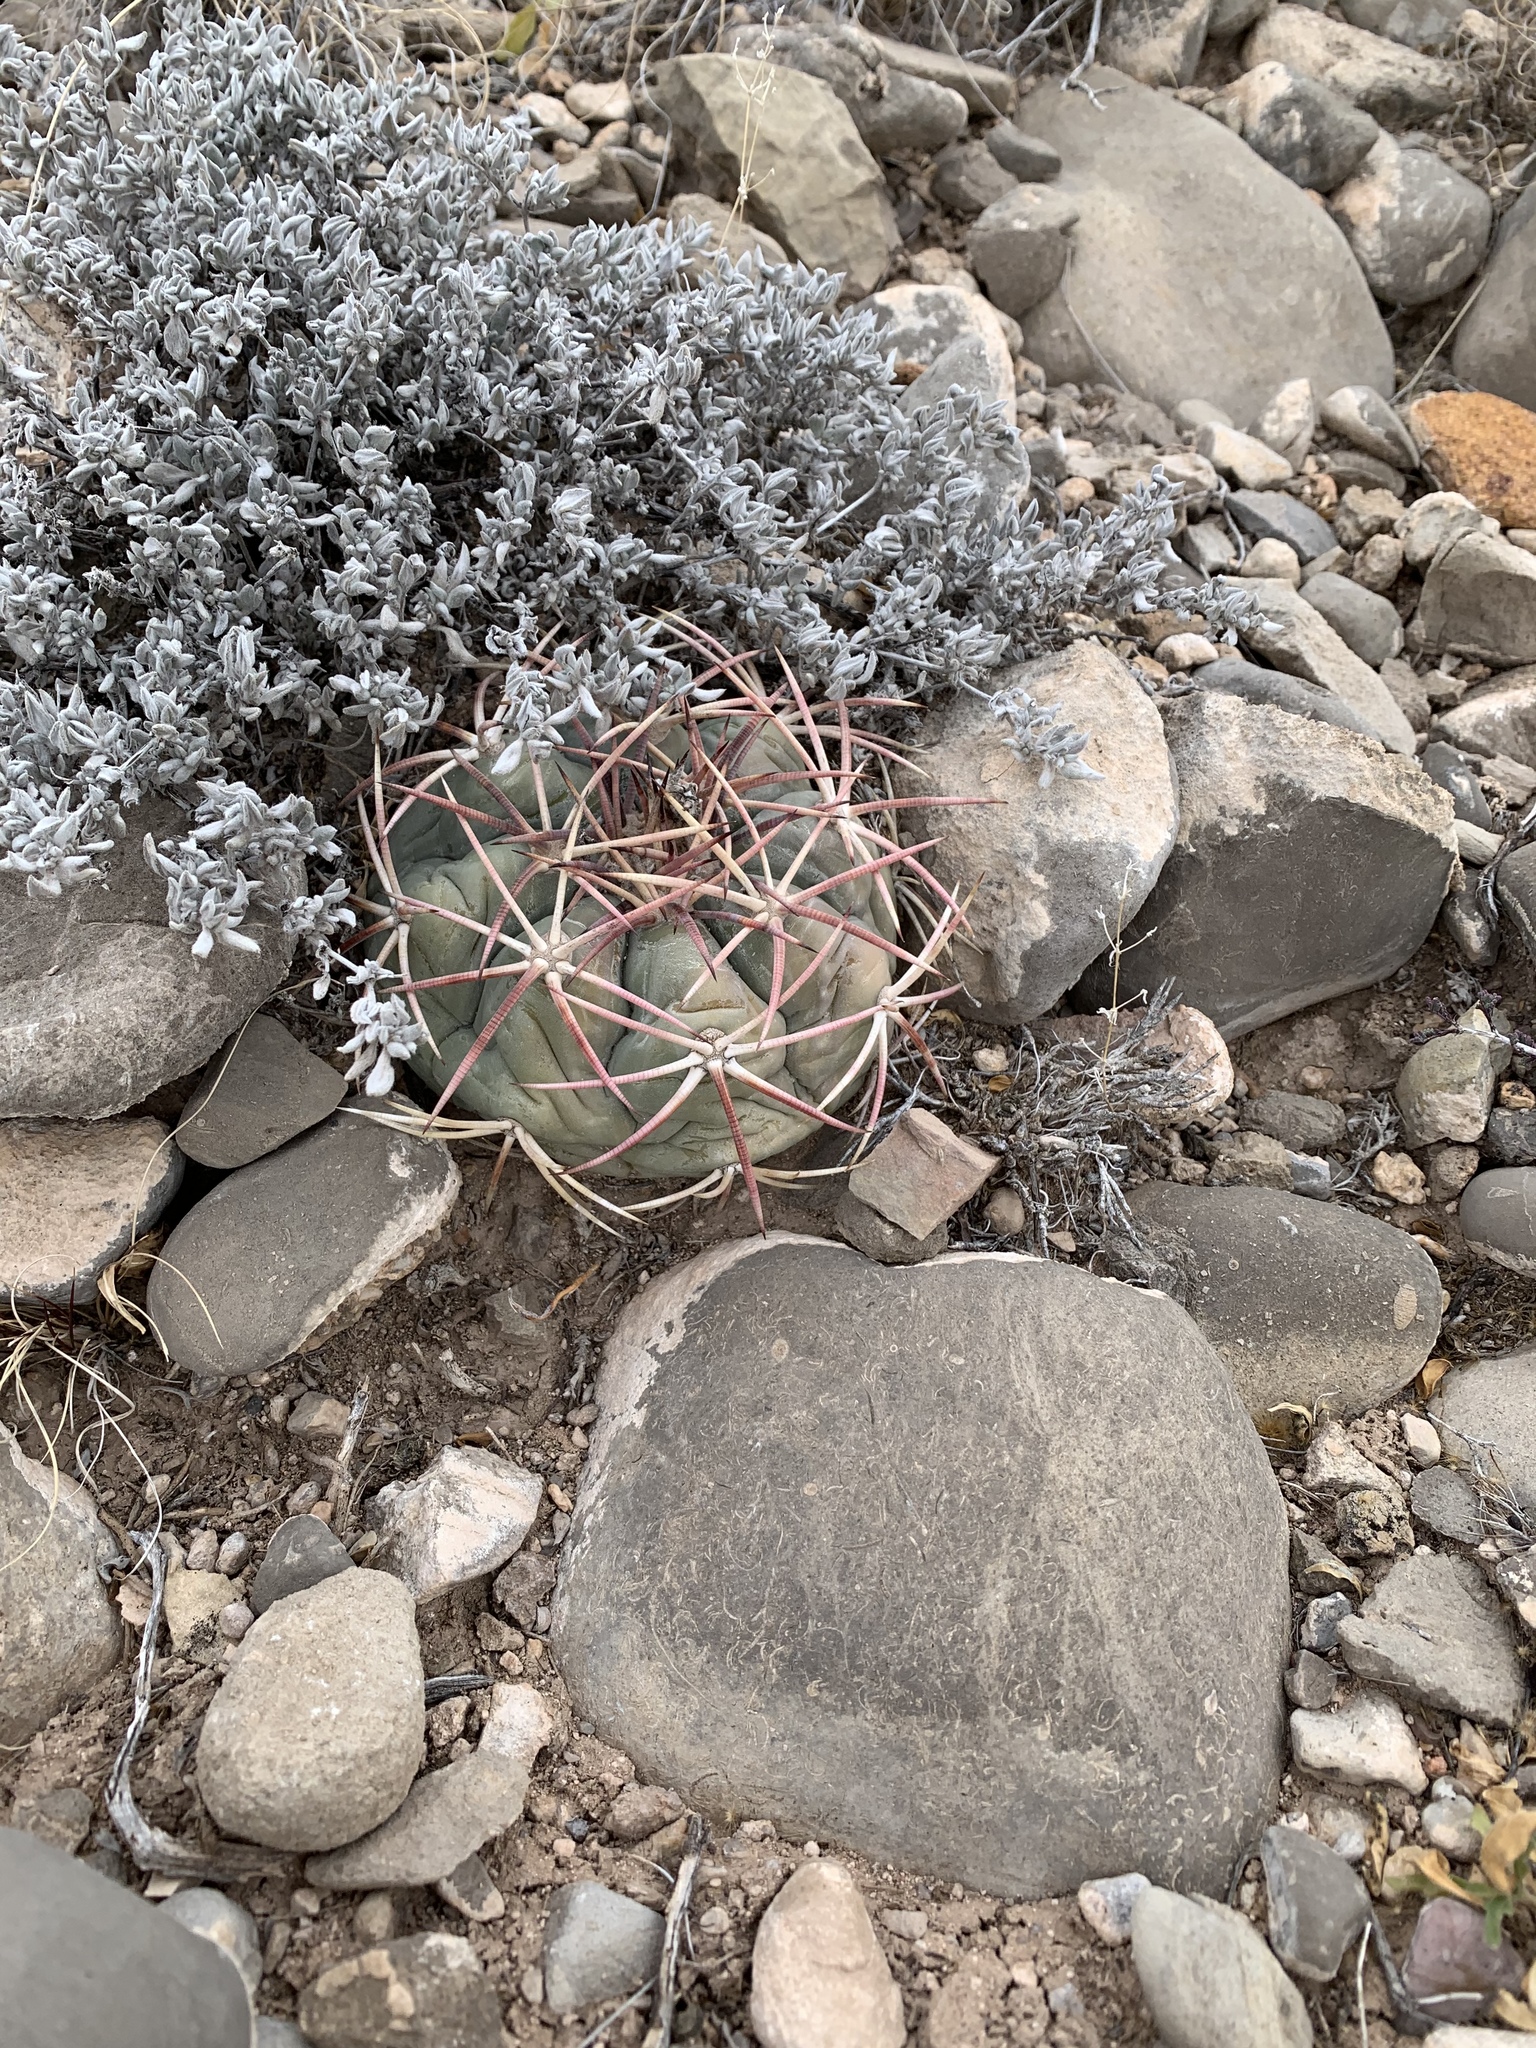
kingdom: Plantae
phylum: Tracheophyta
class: Magnoliopsida
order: Caryophyllales
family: Cactaceae
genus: Echinocactus
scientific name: Echinocactus horizonthalonius
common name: Devilshead
